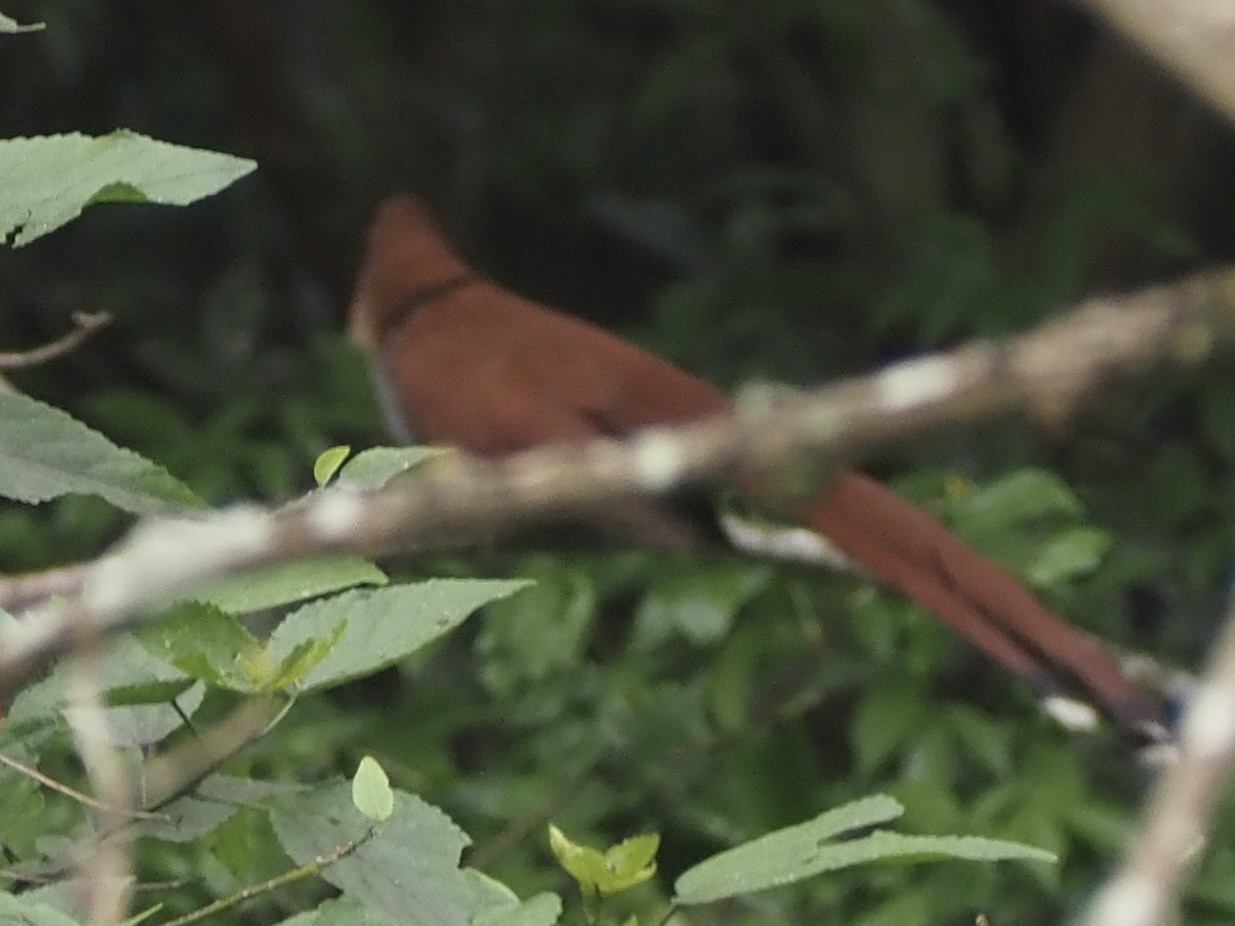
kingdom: Animalia
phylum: Chordata
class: Aves
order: Cuculiformes
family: Cuculidae
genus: Piaya
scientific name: Piaya cayana
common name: Squirrel cuckoo
